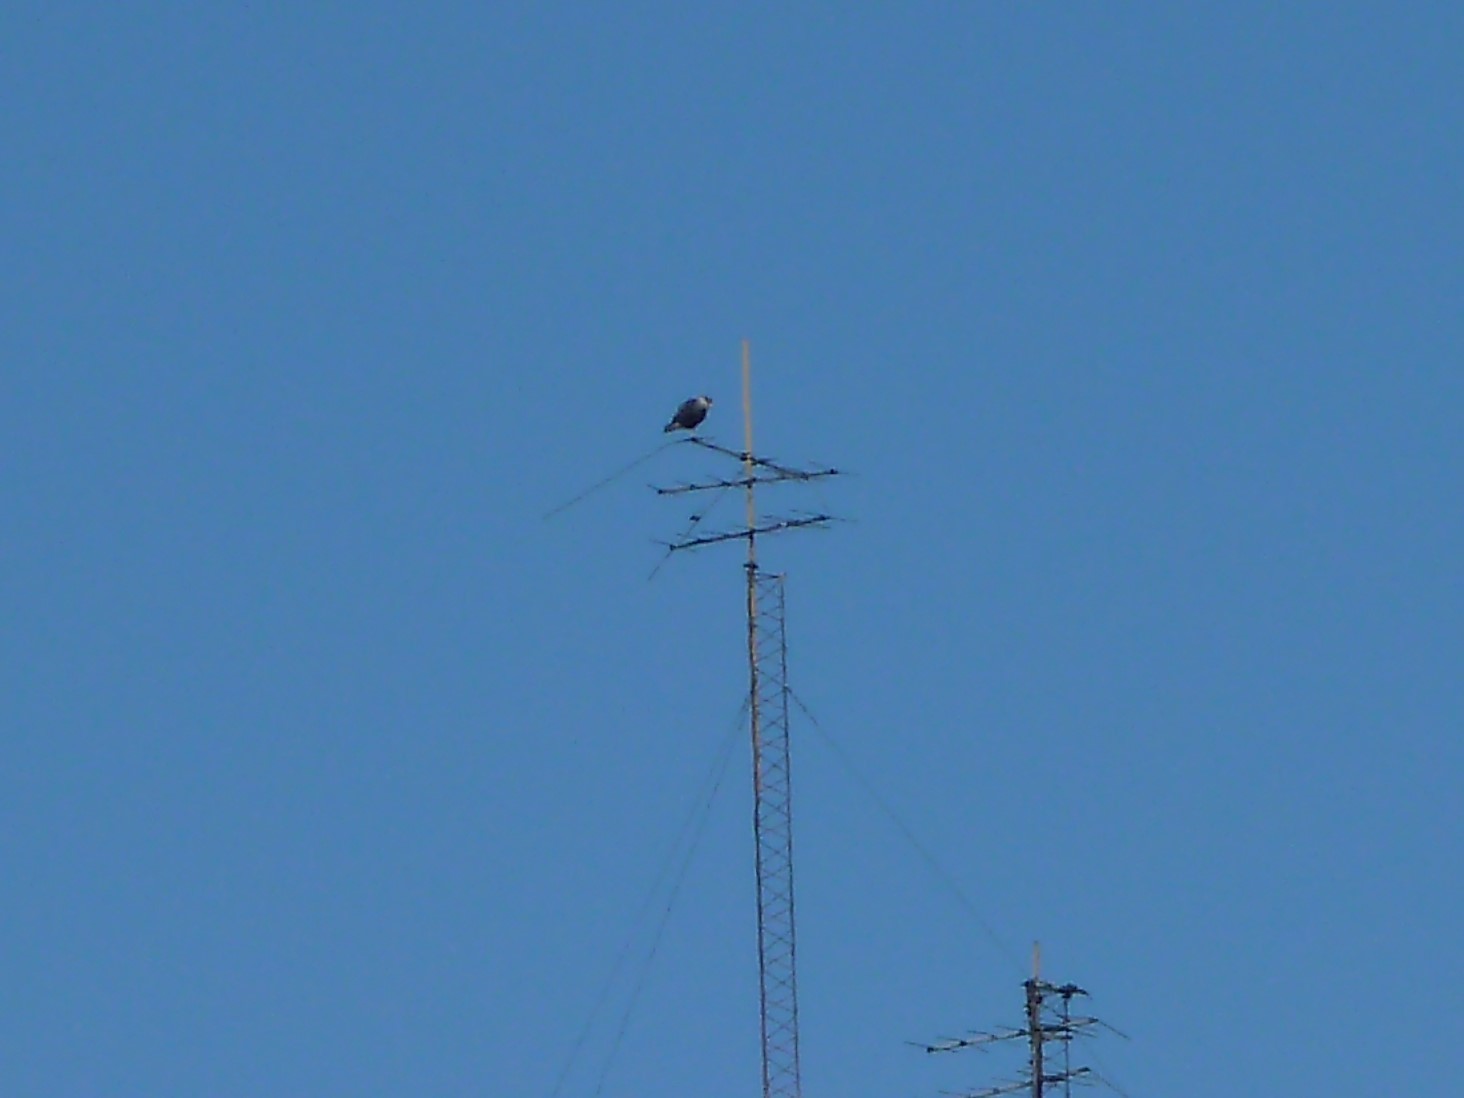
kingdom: Animalia
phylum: Chordata
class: Aves
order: Falconiformes
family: Falconidae
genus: Caracara
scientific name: Caracara plancus
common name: Southern caracara
